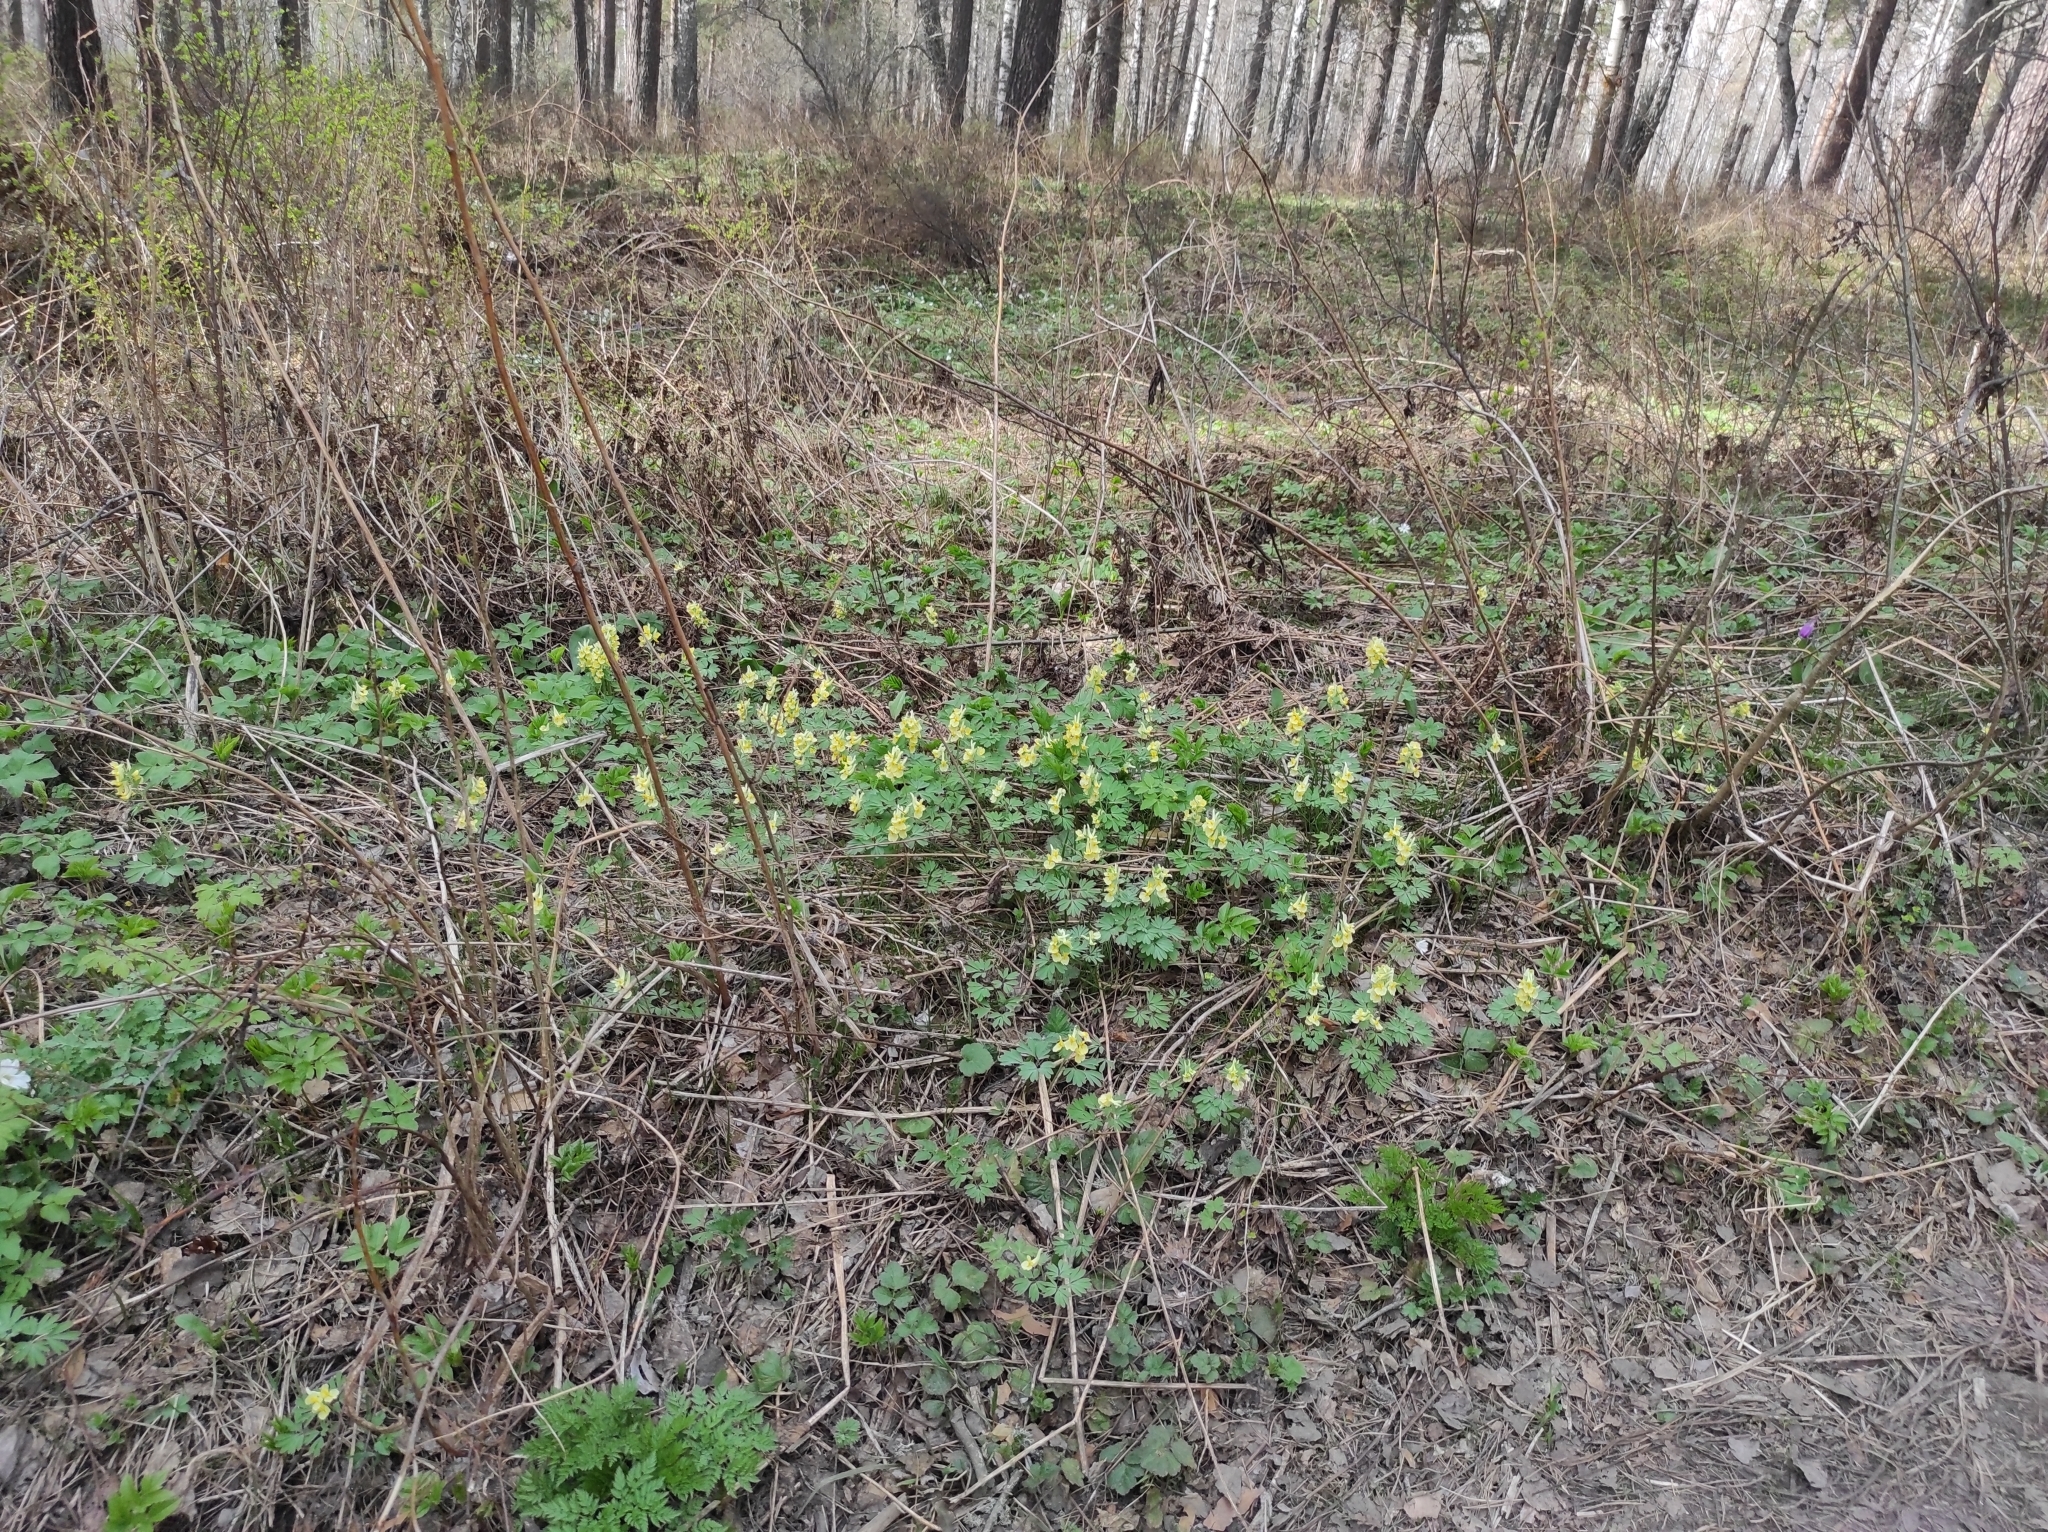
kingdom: Plantae
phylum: Tracheophyta
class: Magnoliopsida
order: Ranunculales
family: Papaveraceae
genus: Corydalis
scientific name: Corydalis bracteata
